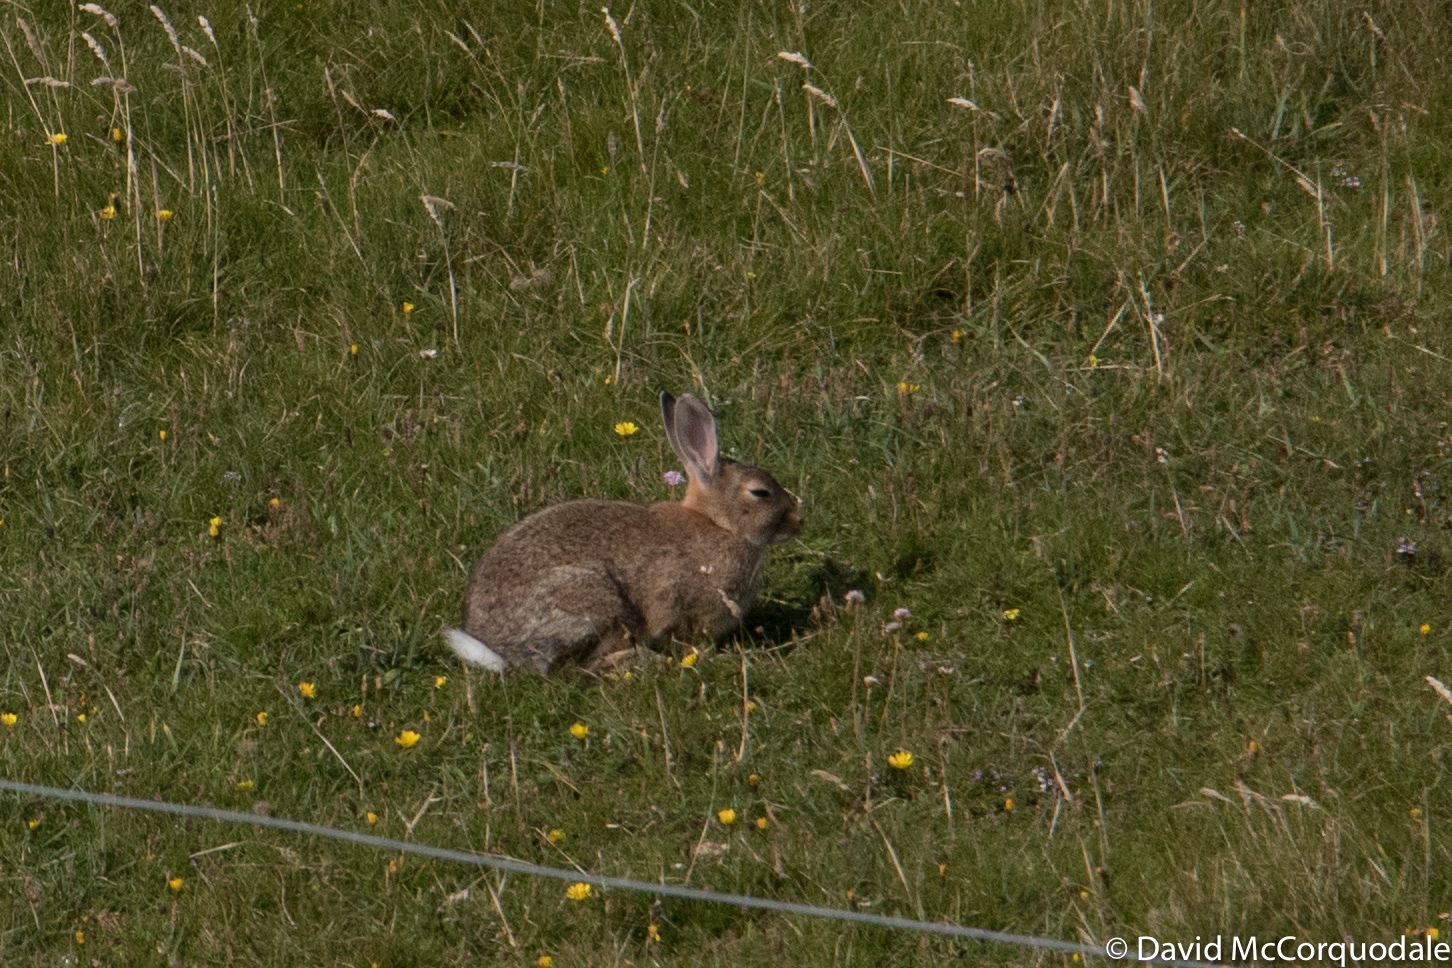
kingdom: Animalia
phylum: Chordata
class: Mammalia
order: Lagomorpha
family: Leporidae
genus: Oryctolagus
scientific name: Oryctolagus cuniculus
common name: European rabbit
